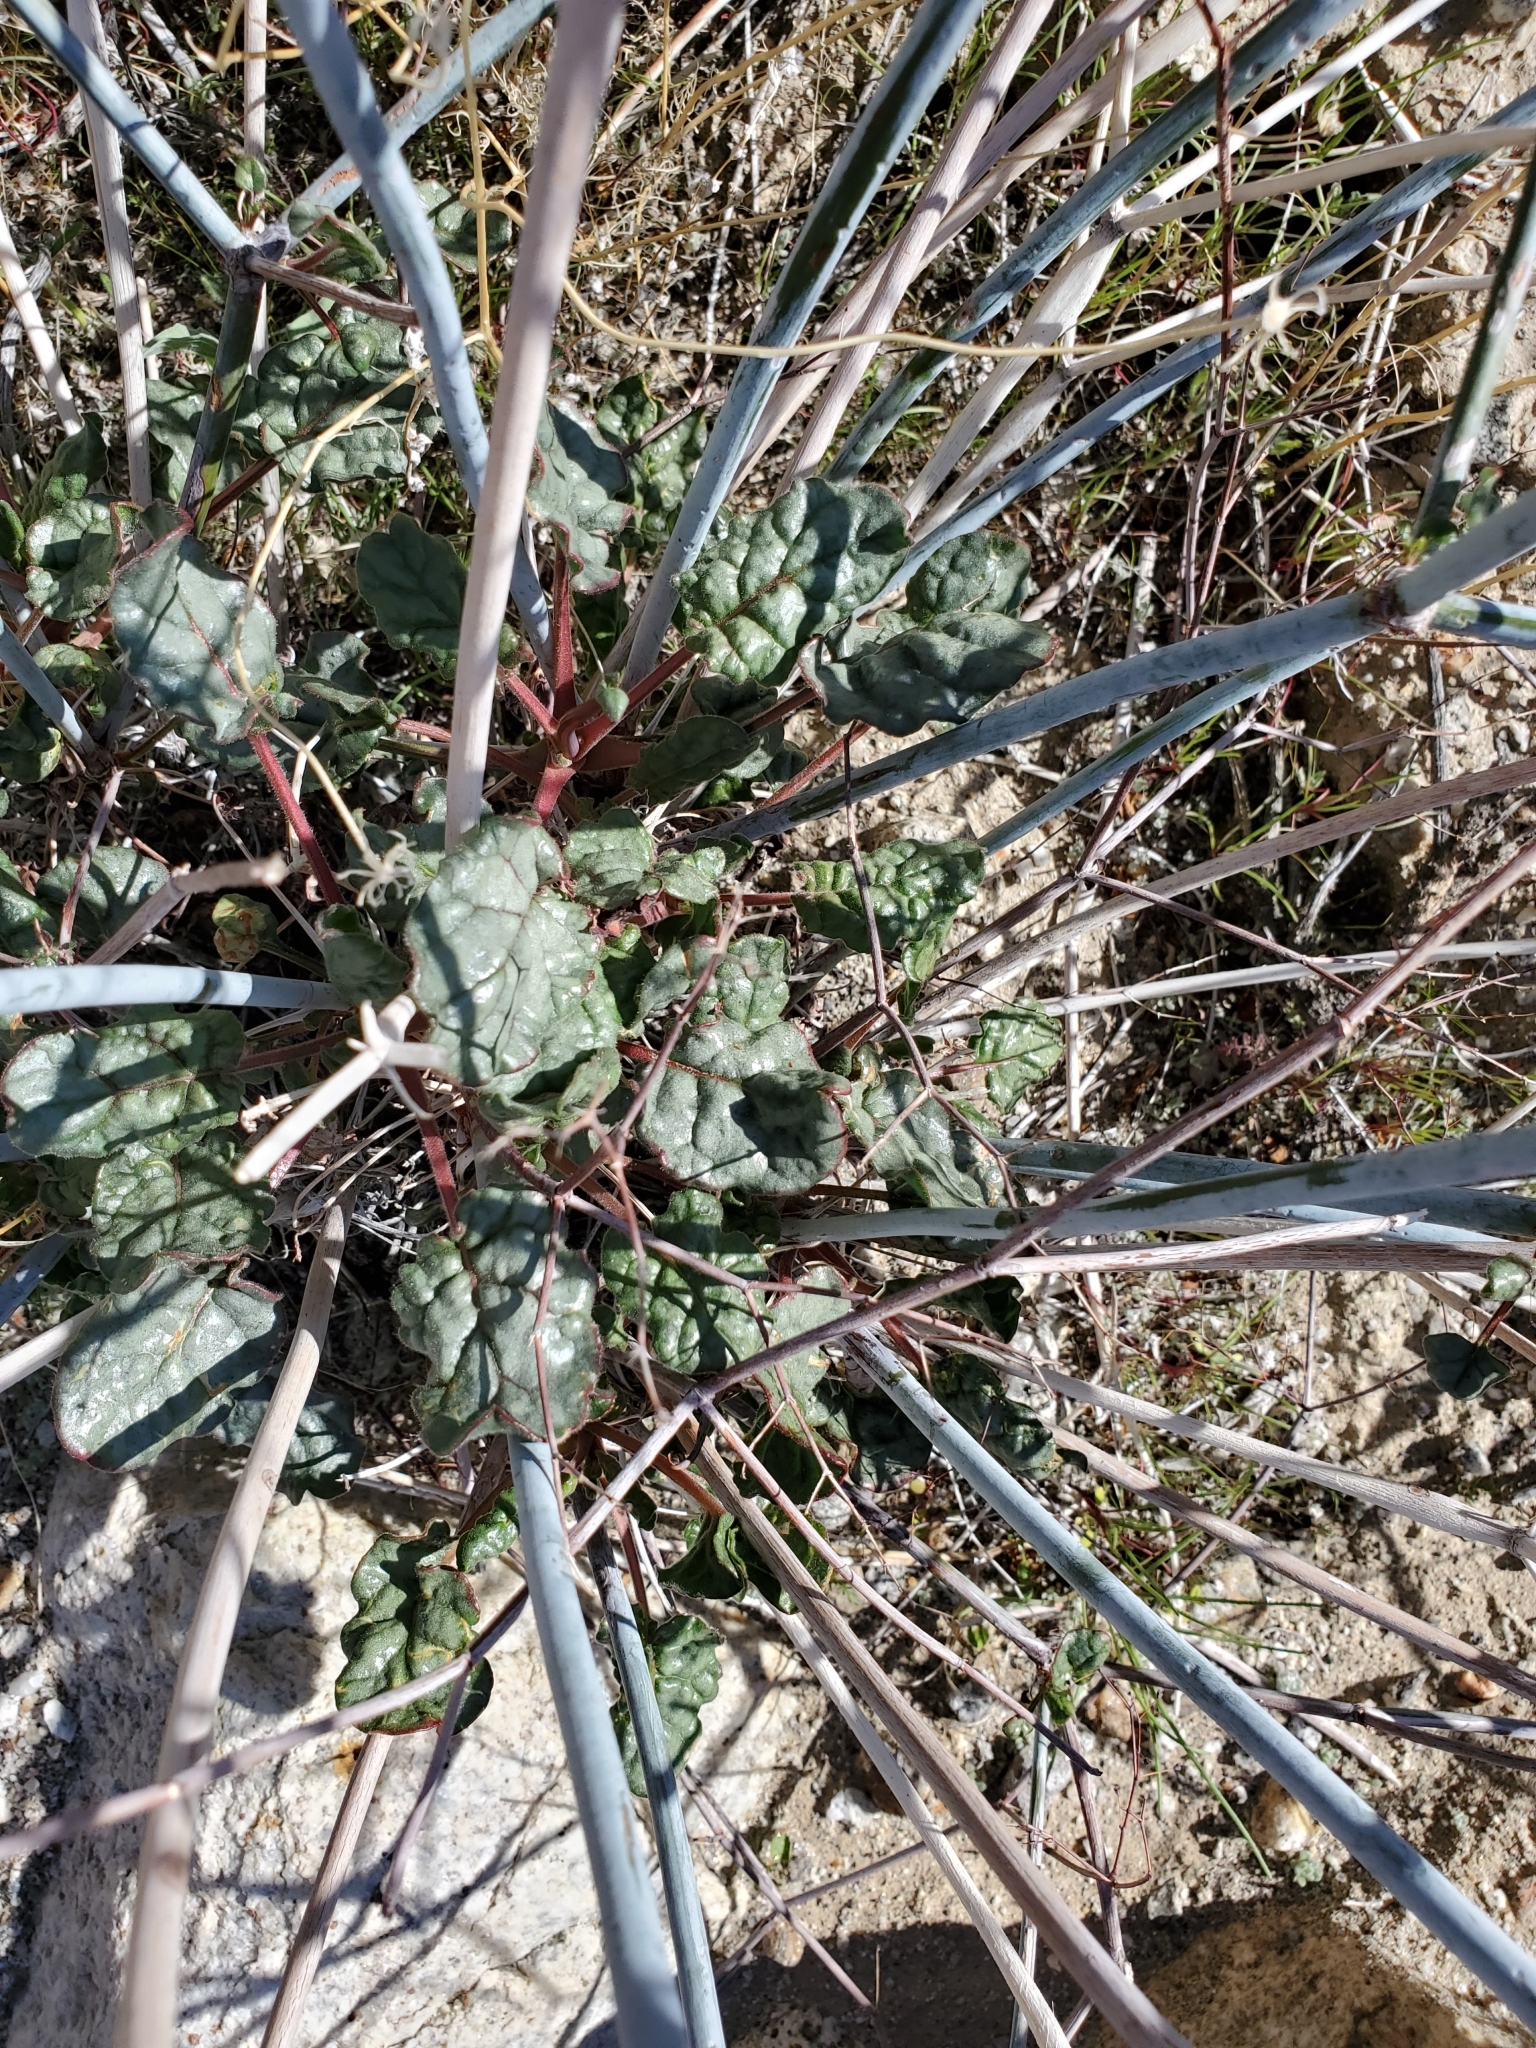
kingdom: Plantae
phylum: Tracheophyta
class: Magnoliopsida
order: Caryophyllales
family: Polygonaceae
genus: Eriogonum
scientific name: Eriogonum inflatum
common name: Desert trumpet
